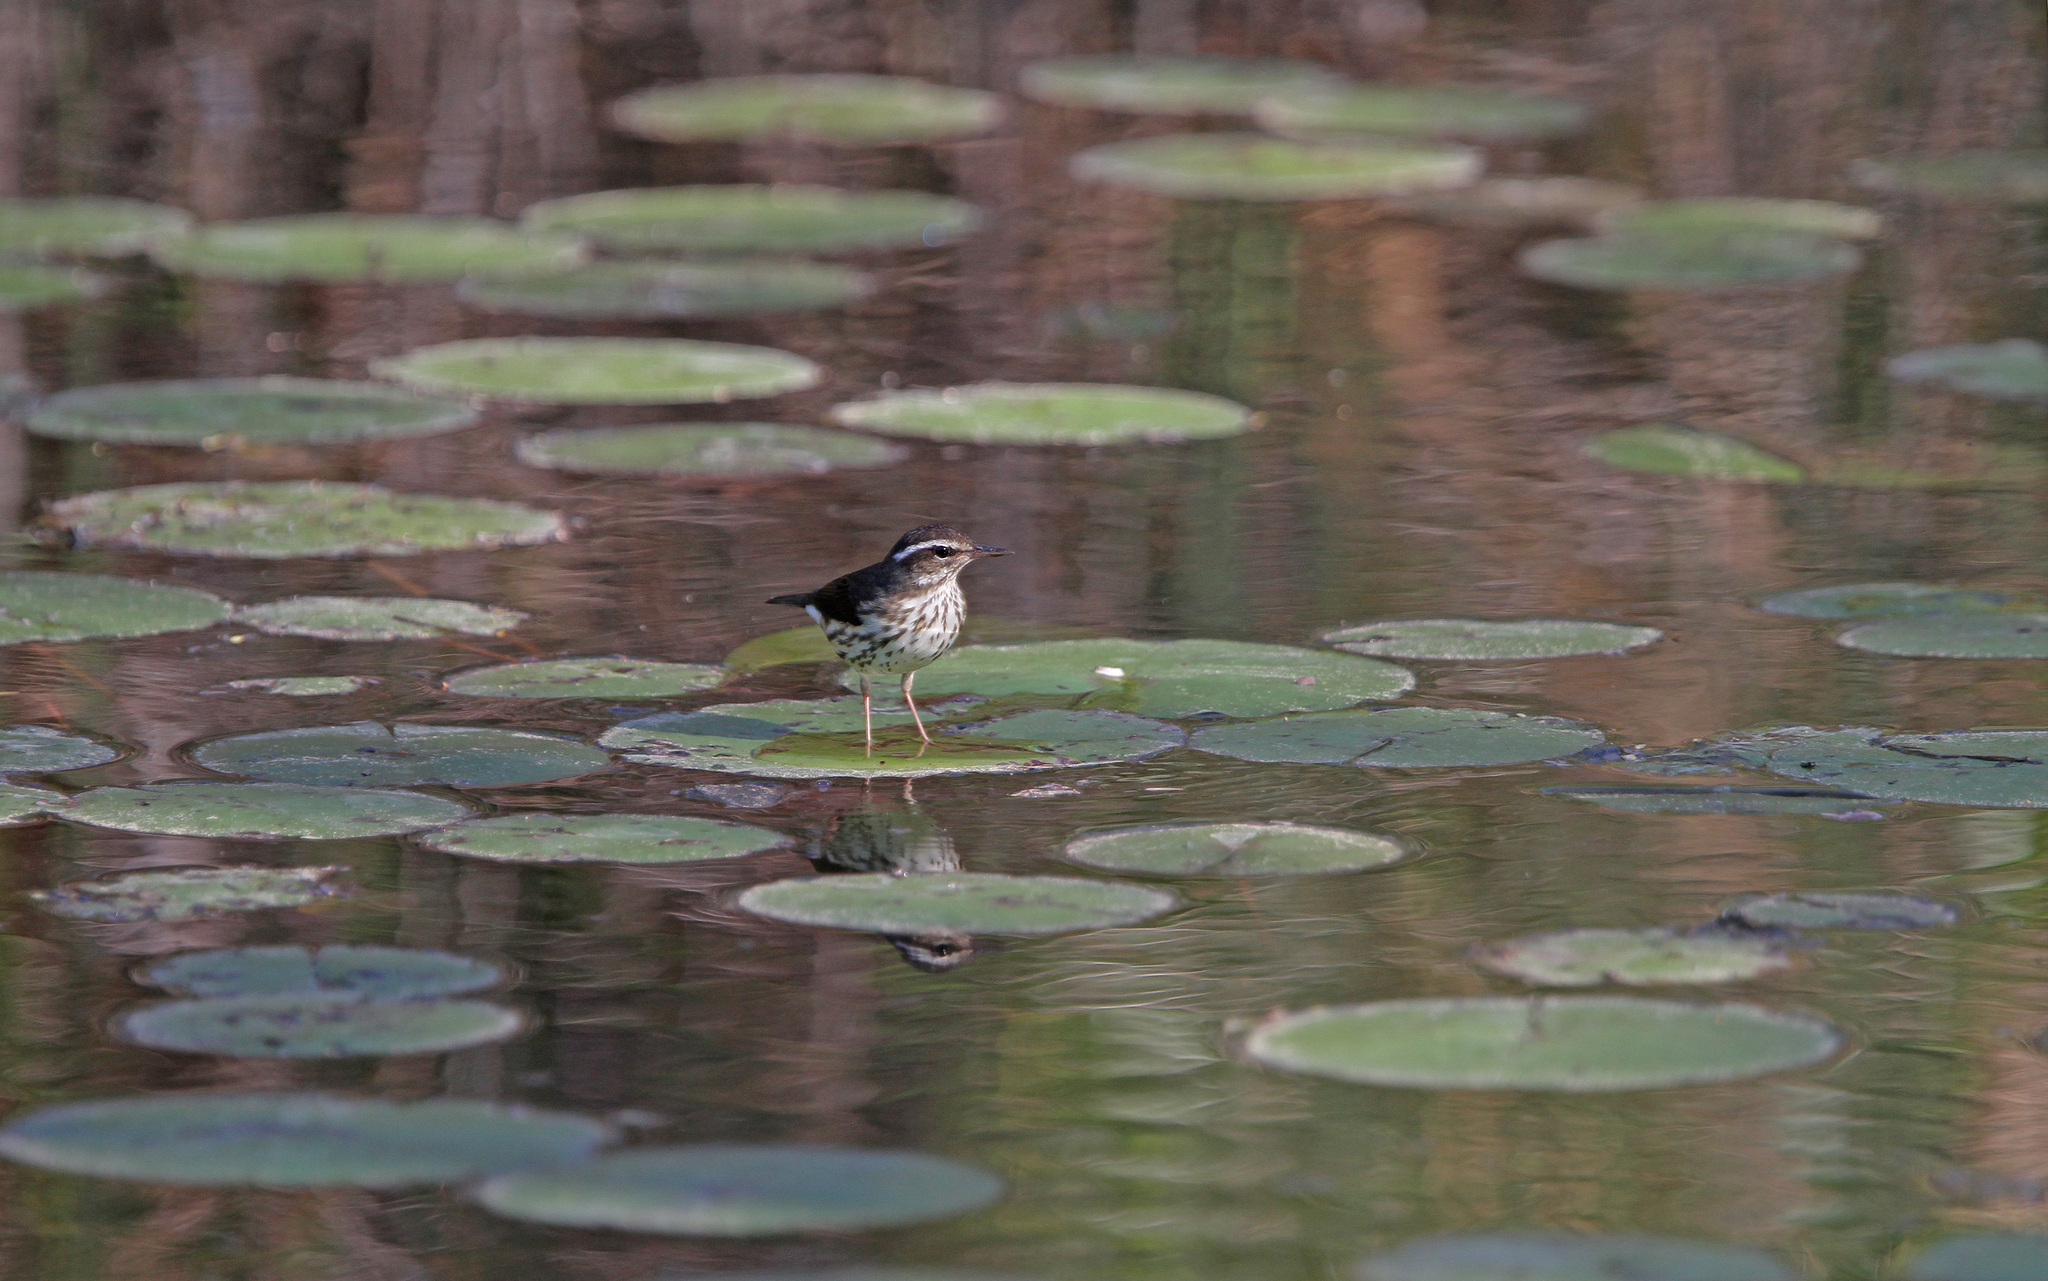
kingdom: Animalia
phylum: Chordata
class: Aves
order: Passeriformes
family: Parulidae
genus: Parkesia
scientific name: Parkesia motacilla
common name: Louisiana waterthrush
